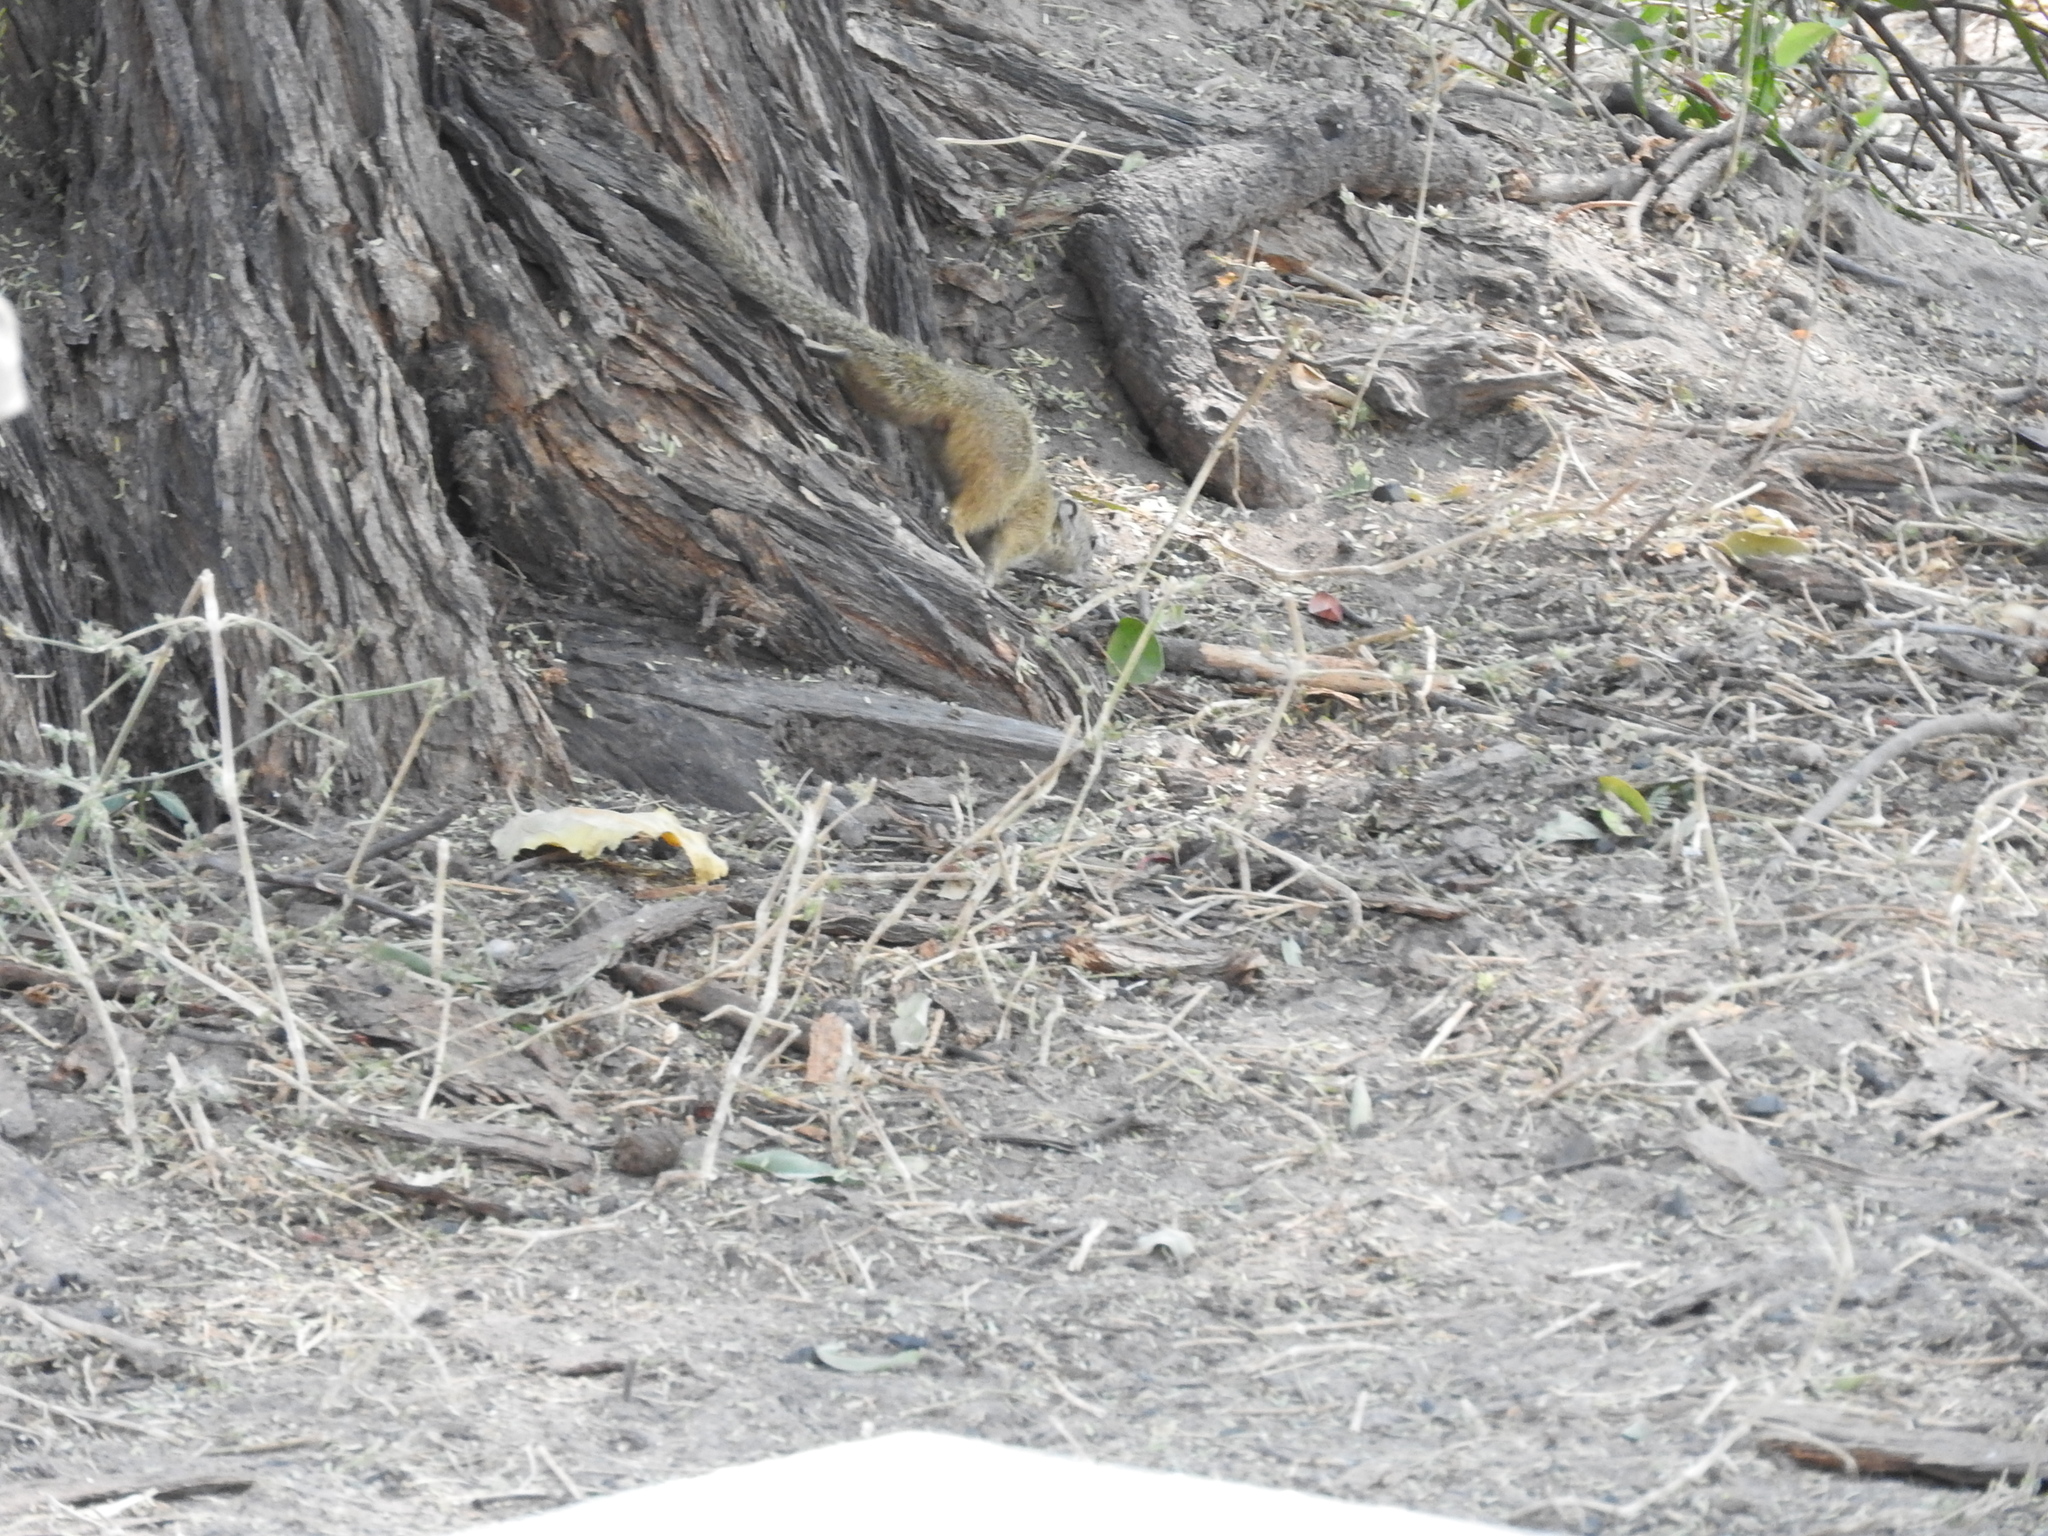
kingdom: Animalia
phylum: Chordata
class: Mammalia
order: Rodentia
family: Sciuridae
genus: Paraxerus
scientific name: Paraxerus cepapi
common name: Smith's bush squirrel
